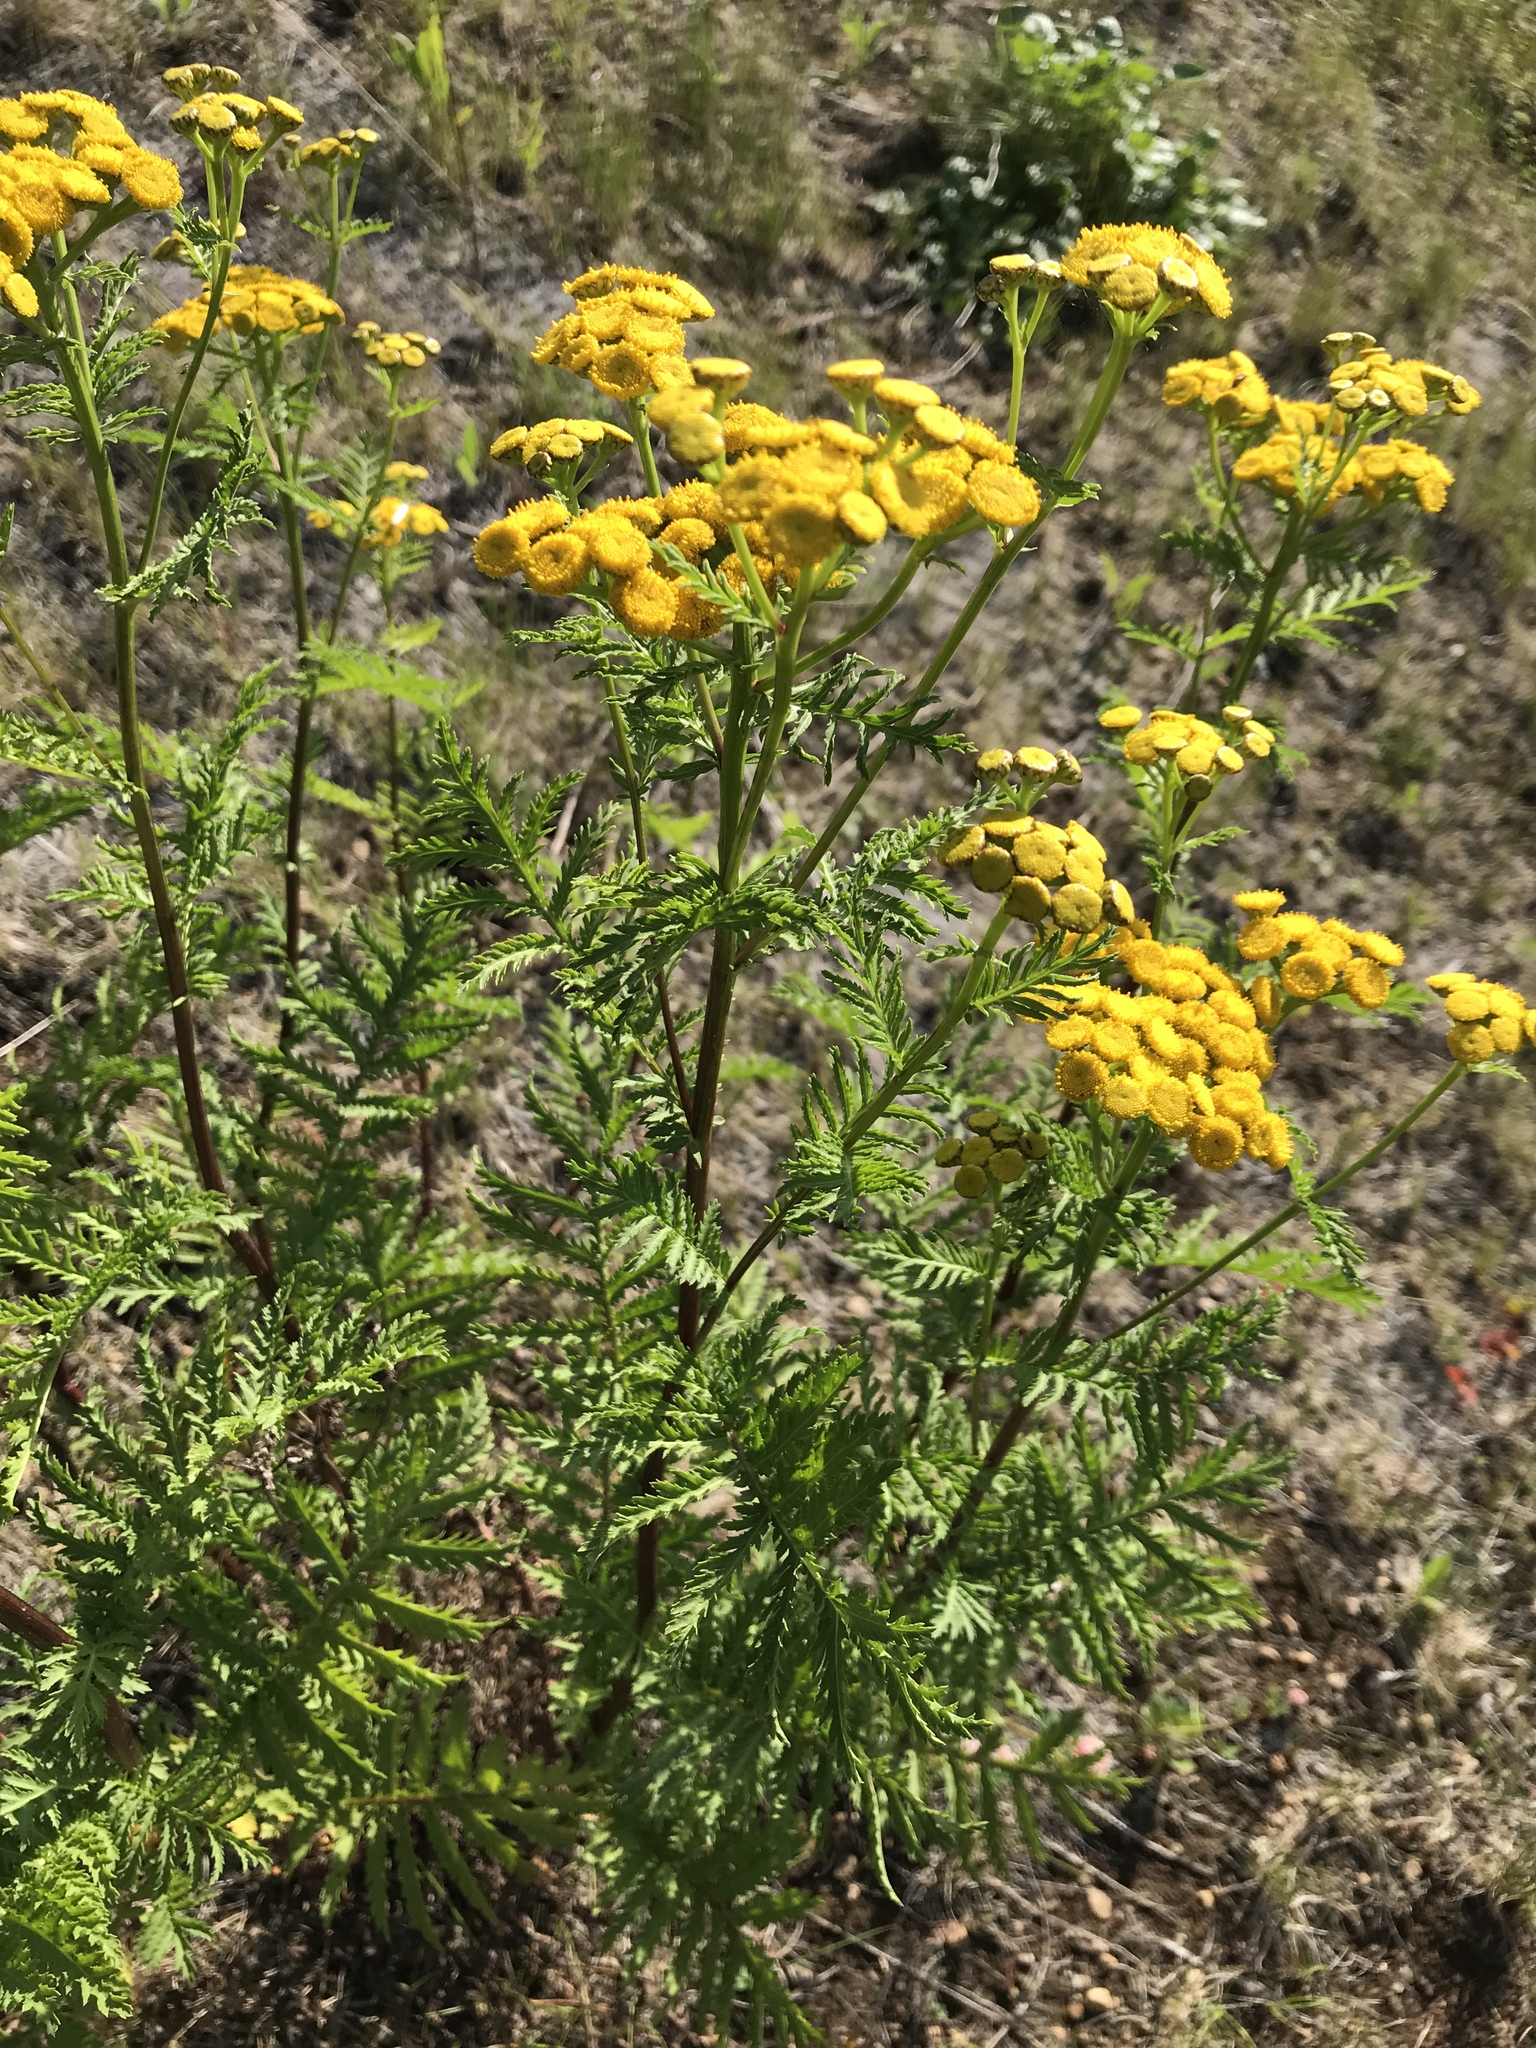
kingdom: Plantae
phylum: Tracheophyta
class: Magnoliopsida
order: Asterales
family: Asteraceae
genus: Tanacetum
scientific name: Tanacetum vulgare
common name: Common tansy
